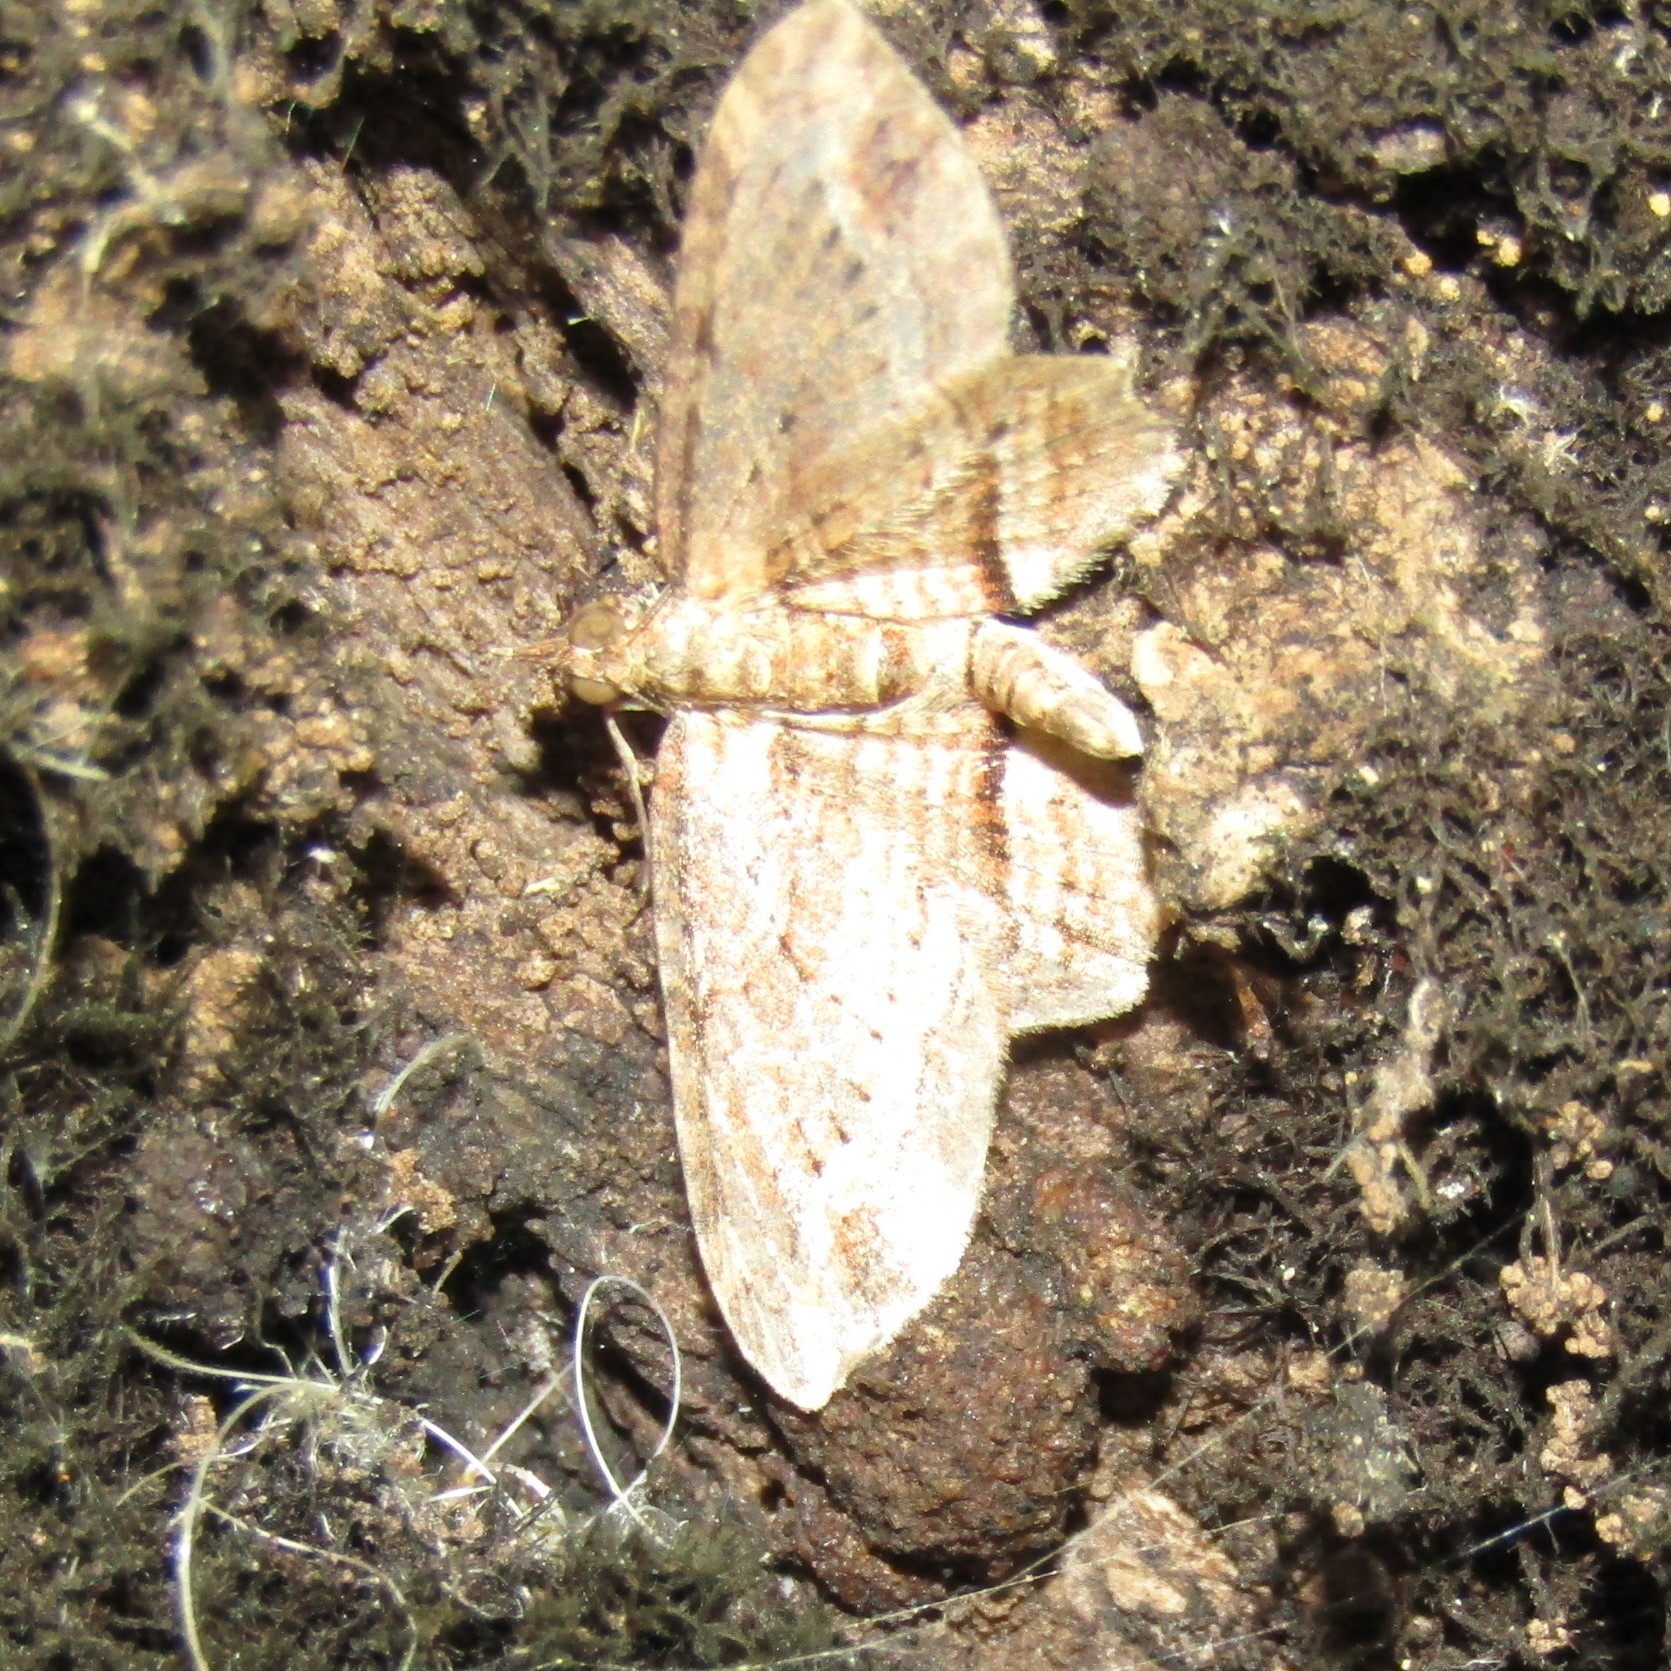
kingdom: Animalia
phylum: Arthropoda
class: Insecta
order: Lepidoptera
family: Geometridae
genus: Chloroclystis
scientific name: Chloroclystis filata
